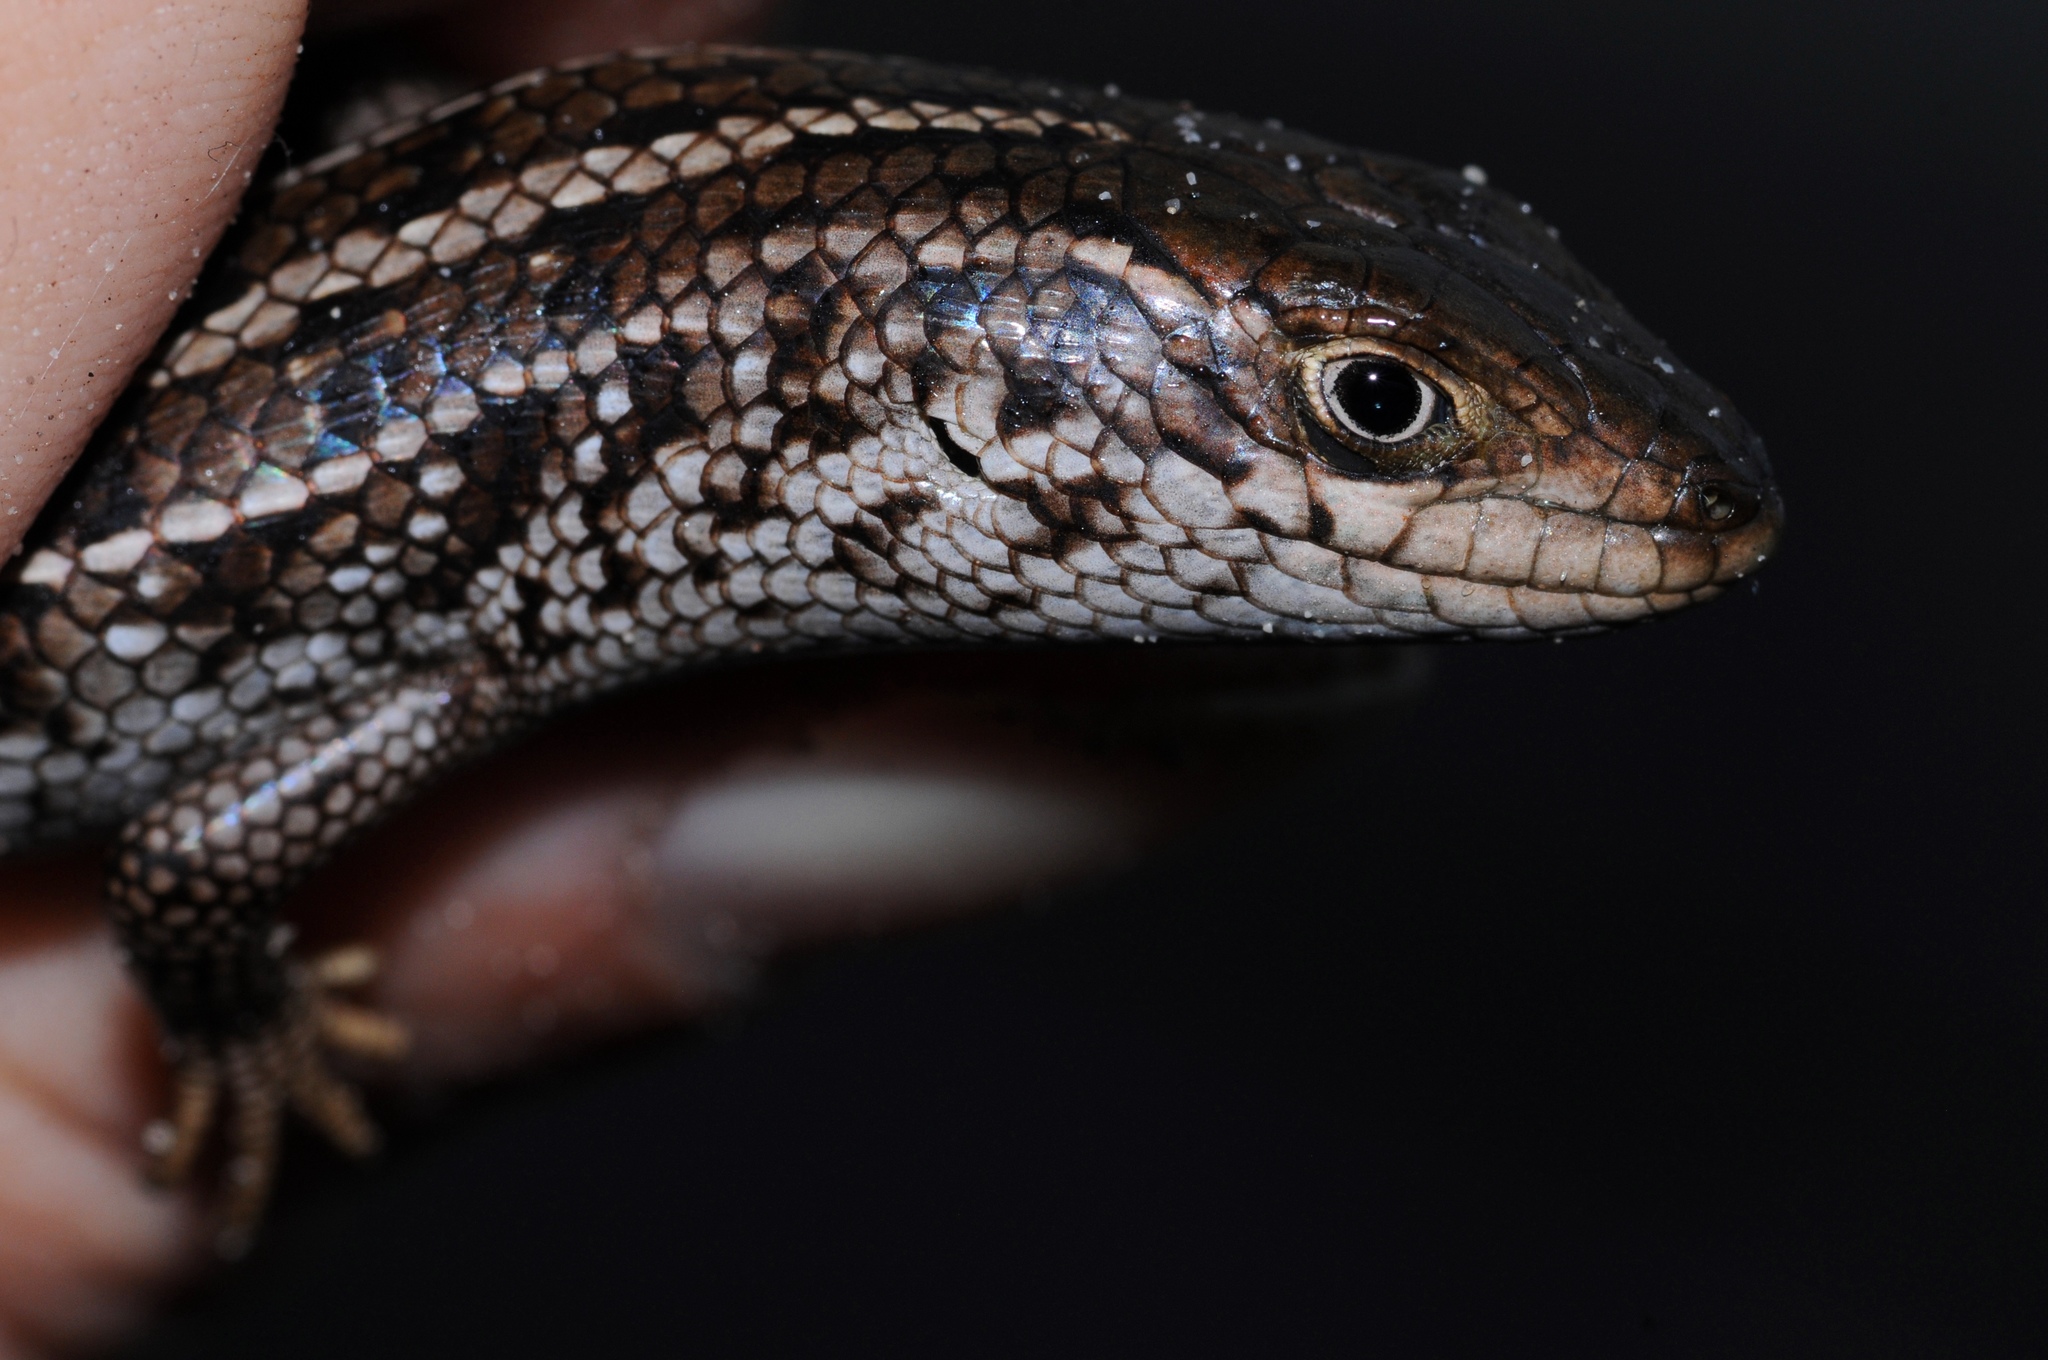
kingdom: Animalia
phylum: Chordata
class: Squamata
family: Scincidae
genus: Trachylepis
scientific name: Trachylepis capensis
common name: Cape skink
